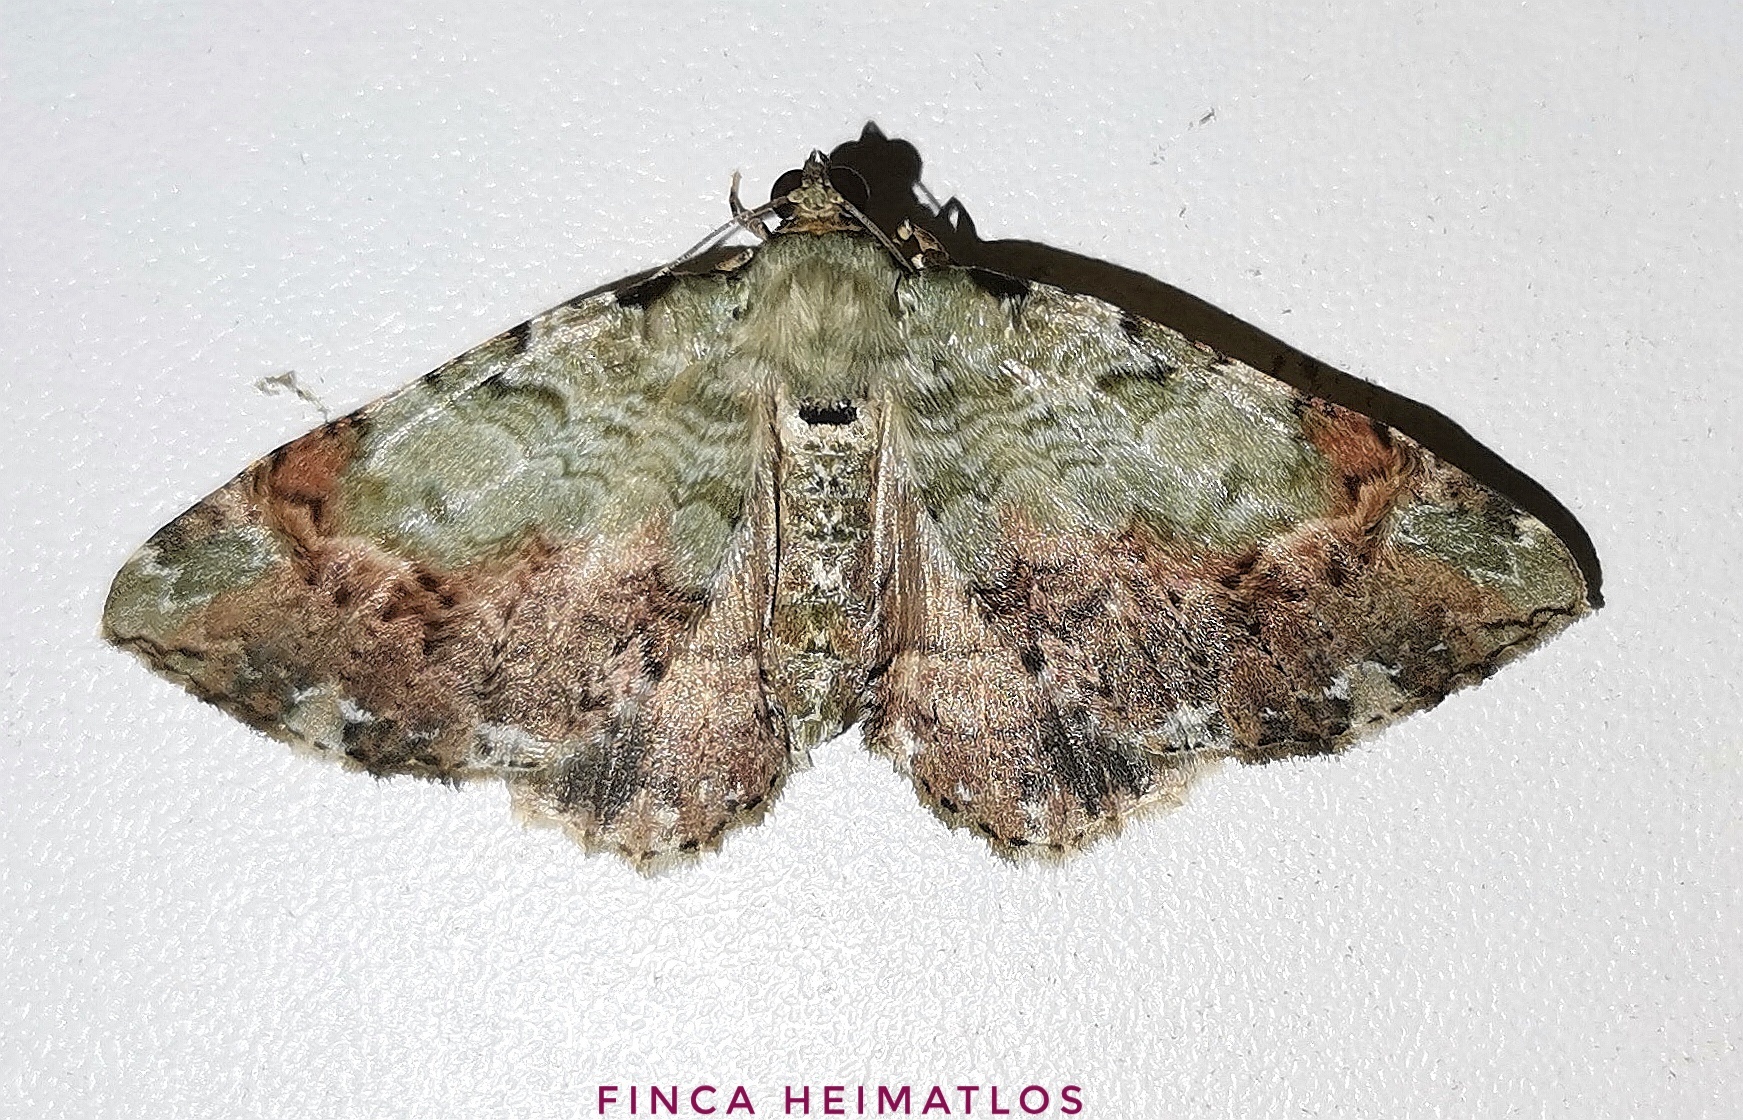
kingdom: Animalia
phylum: Arthropoda
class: Insecta
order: Lepidoptera
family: Geometridae
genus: Pterocypha
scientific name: Pterocypha gibbosaria
